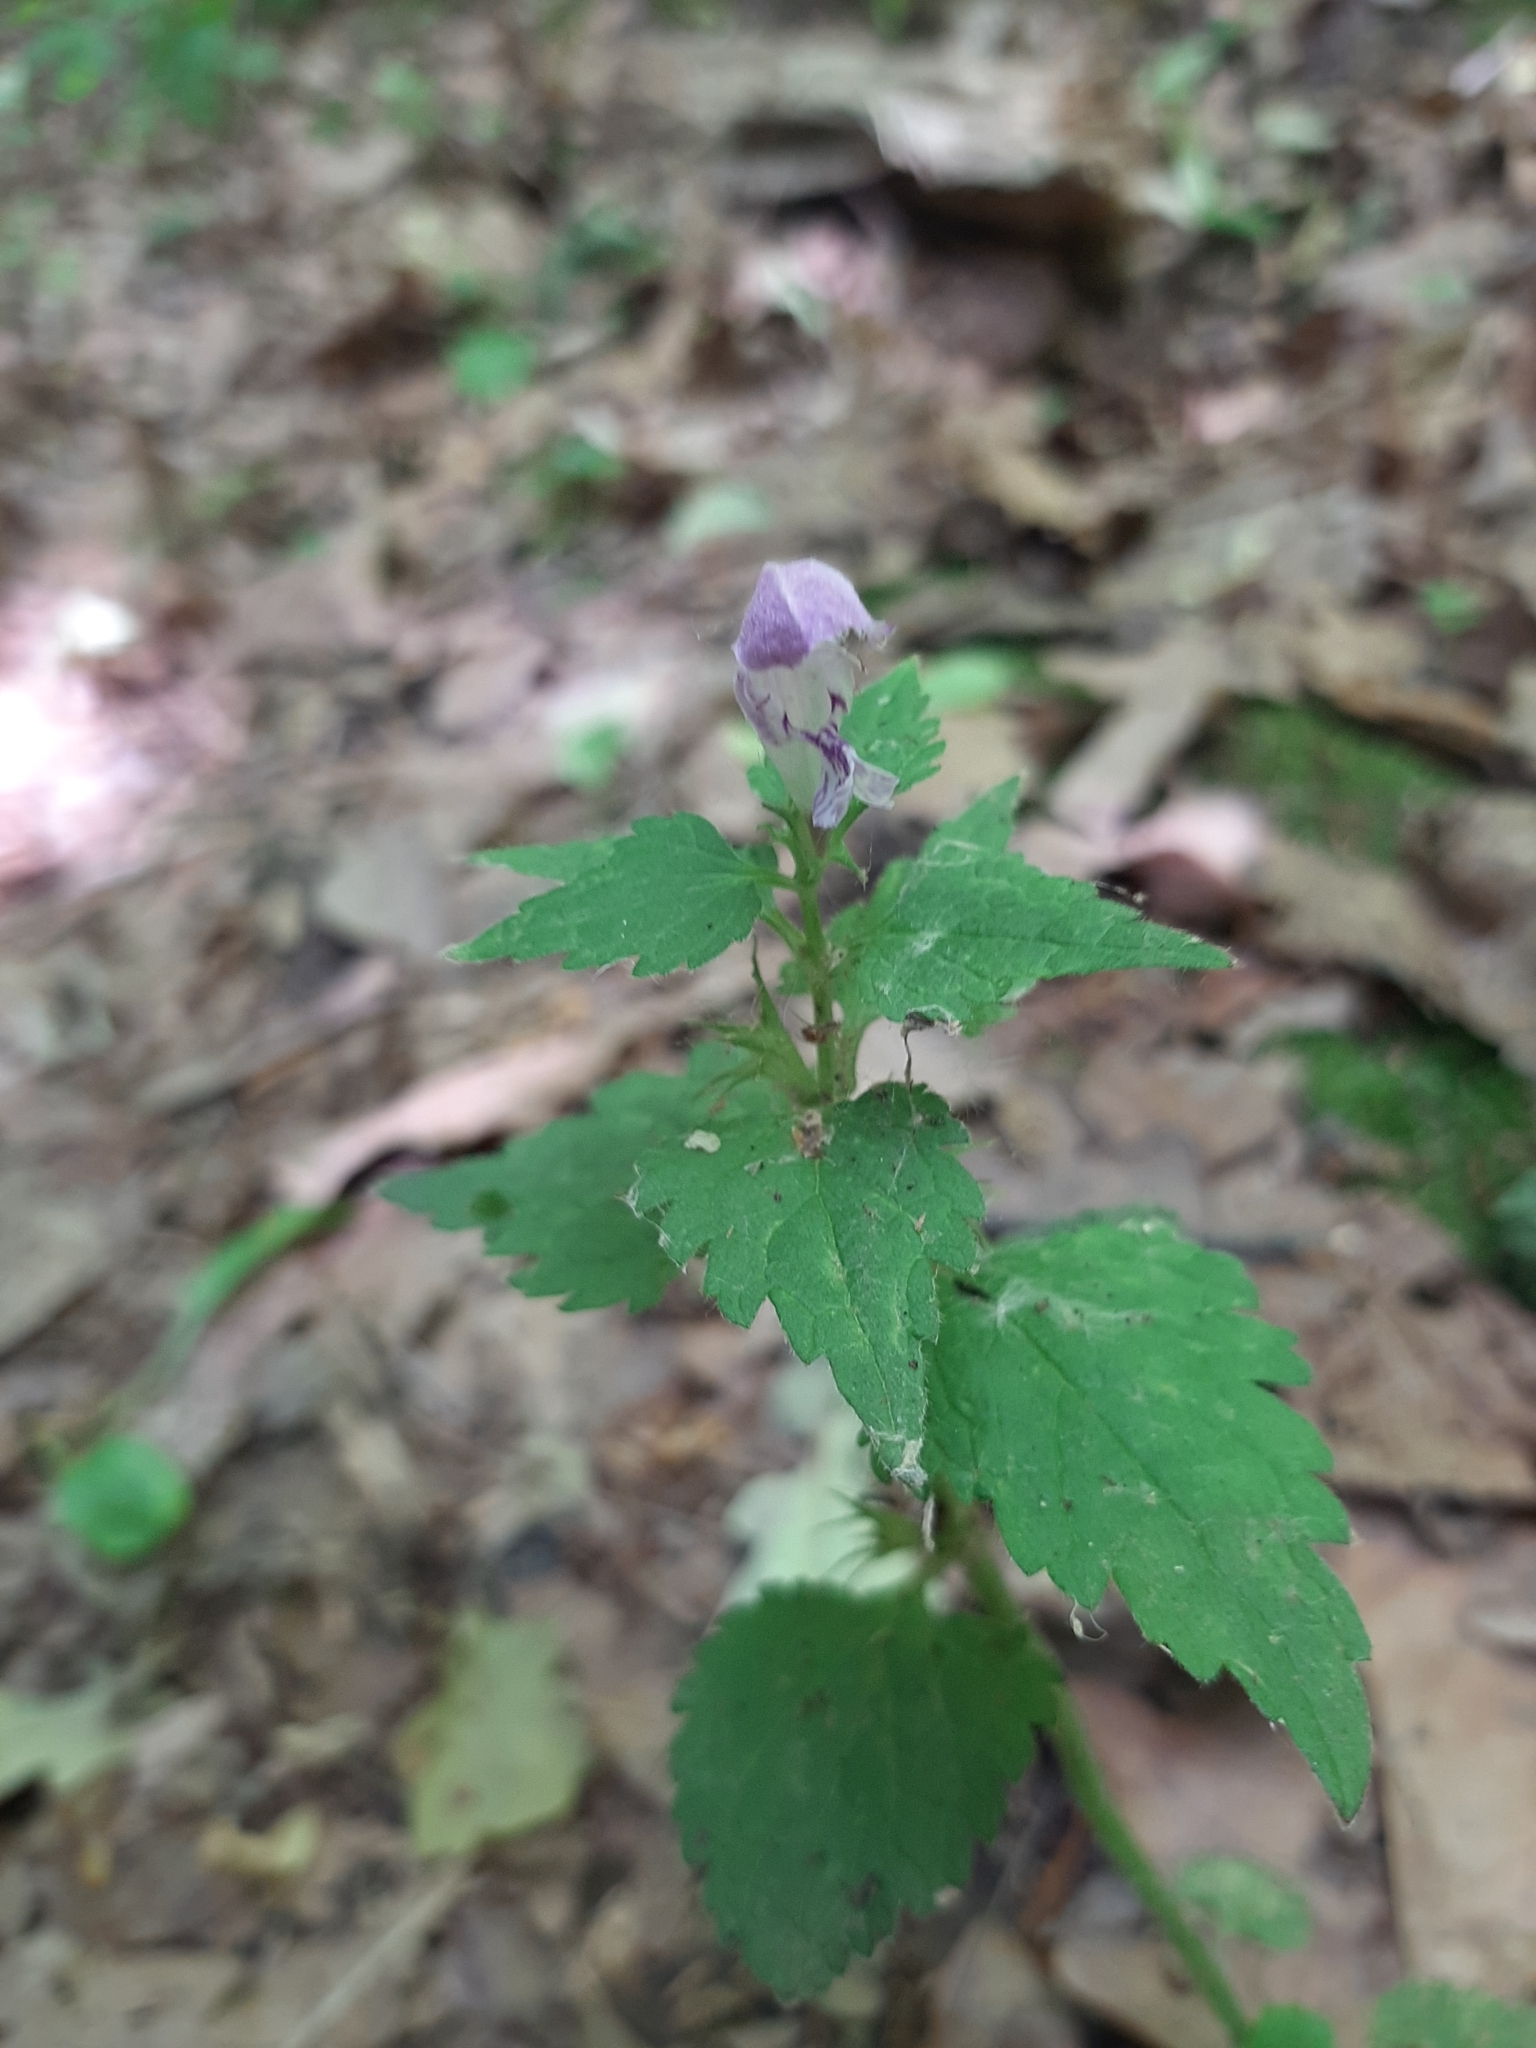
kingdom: Plantae
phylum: Tracheophyta
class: Magnoliopsida
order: Lamiales
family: Lamiaceae
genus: Lamium
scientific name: Lamium maculatum
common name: Spotted dead-nettle
